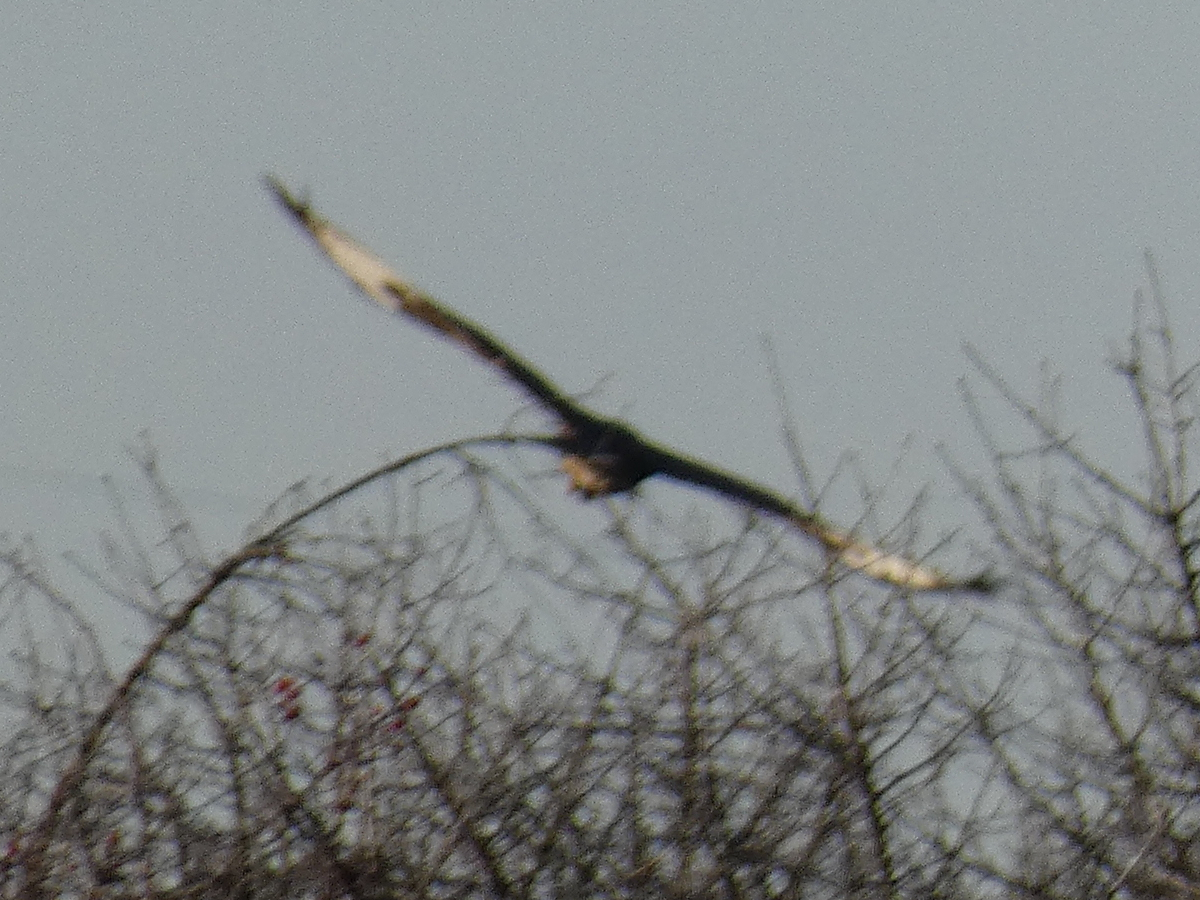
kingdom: Animalia
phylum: Chordata
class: Aves
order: Accipitriformes
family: Accipitridae
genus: Buteo
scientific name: Buteo buteo
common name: Common buzzard
